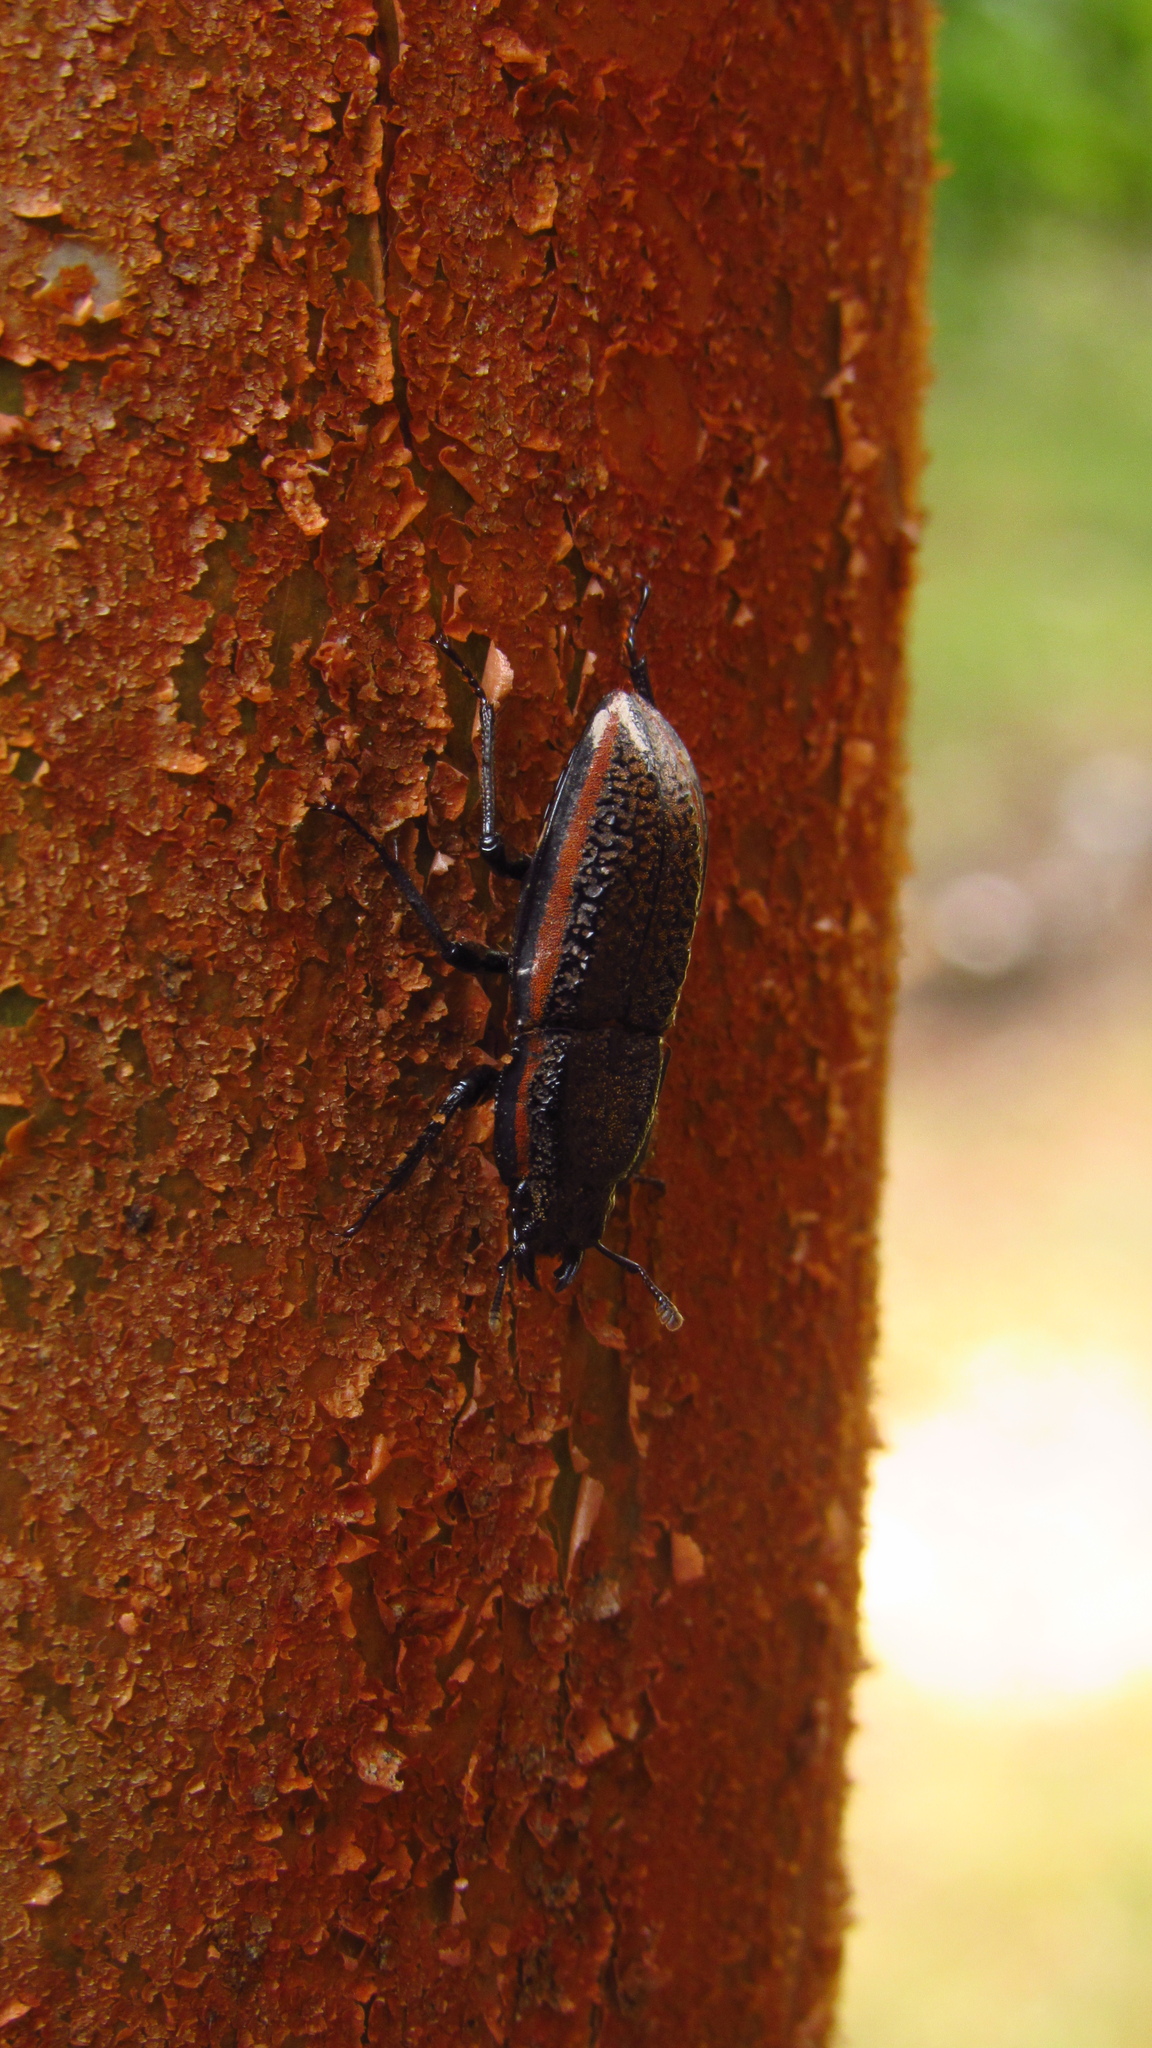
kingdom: Animalia
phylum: Arthropoda
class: Insecta
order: Coleoptera
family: Lucanidae
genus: Erichius
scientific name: Erichius caelatus
